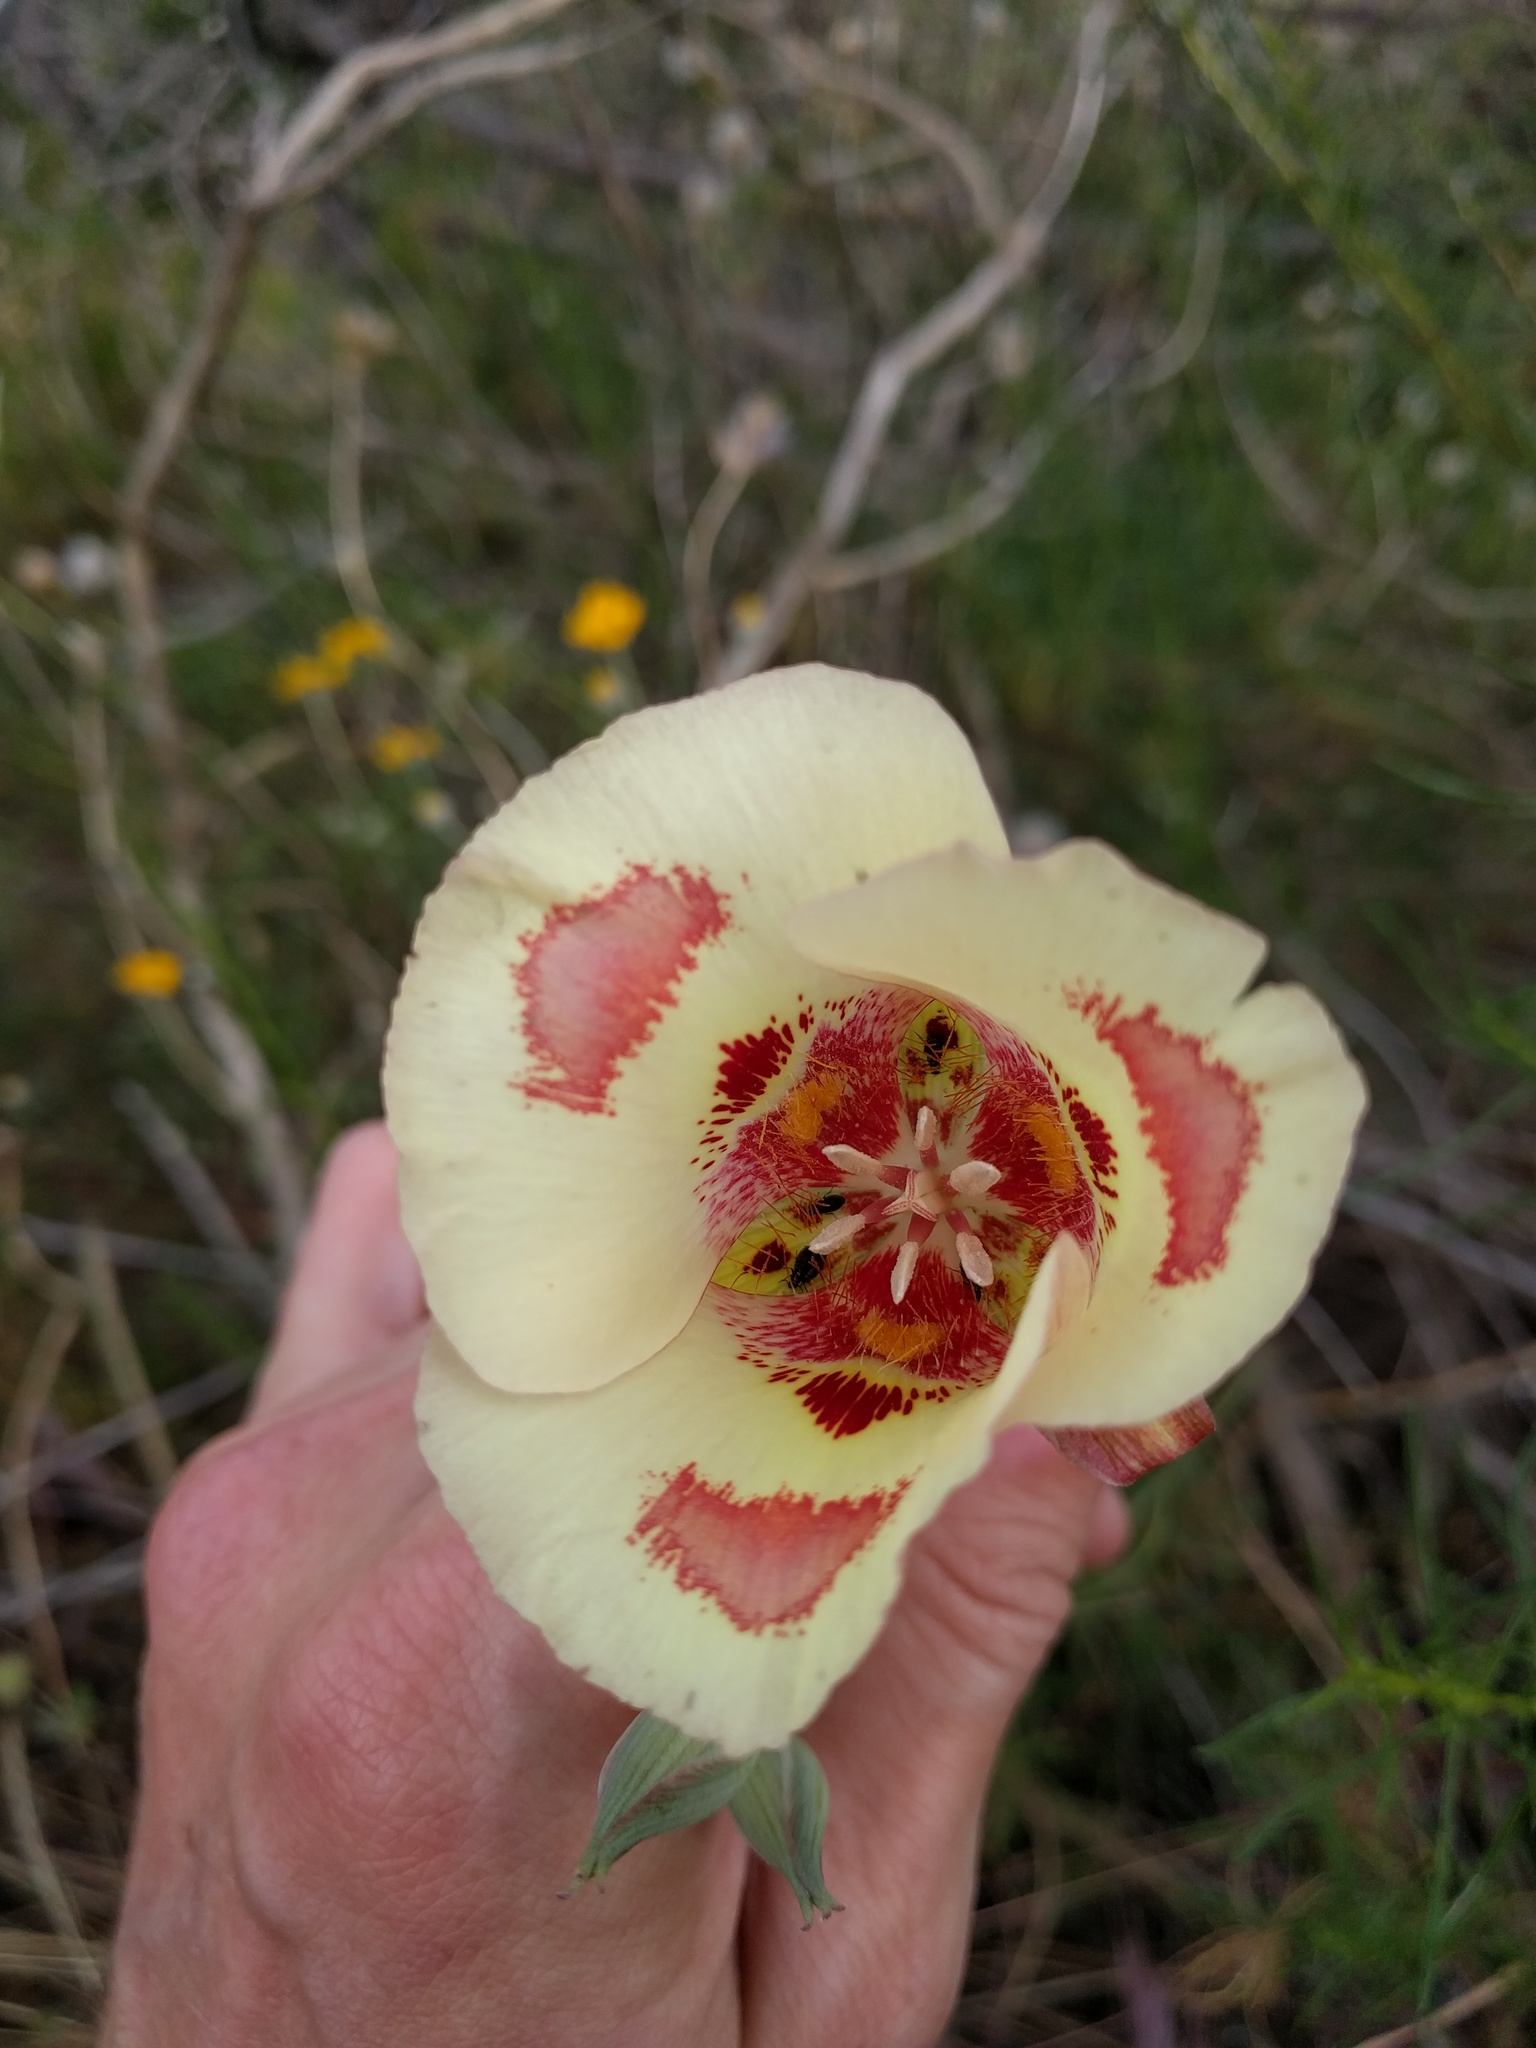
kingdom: Plantae
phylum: Tracheophyta
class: Liliopsida
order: Liliales
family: Liliaceae
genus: Calochortus
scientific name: Calochortus venustus
